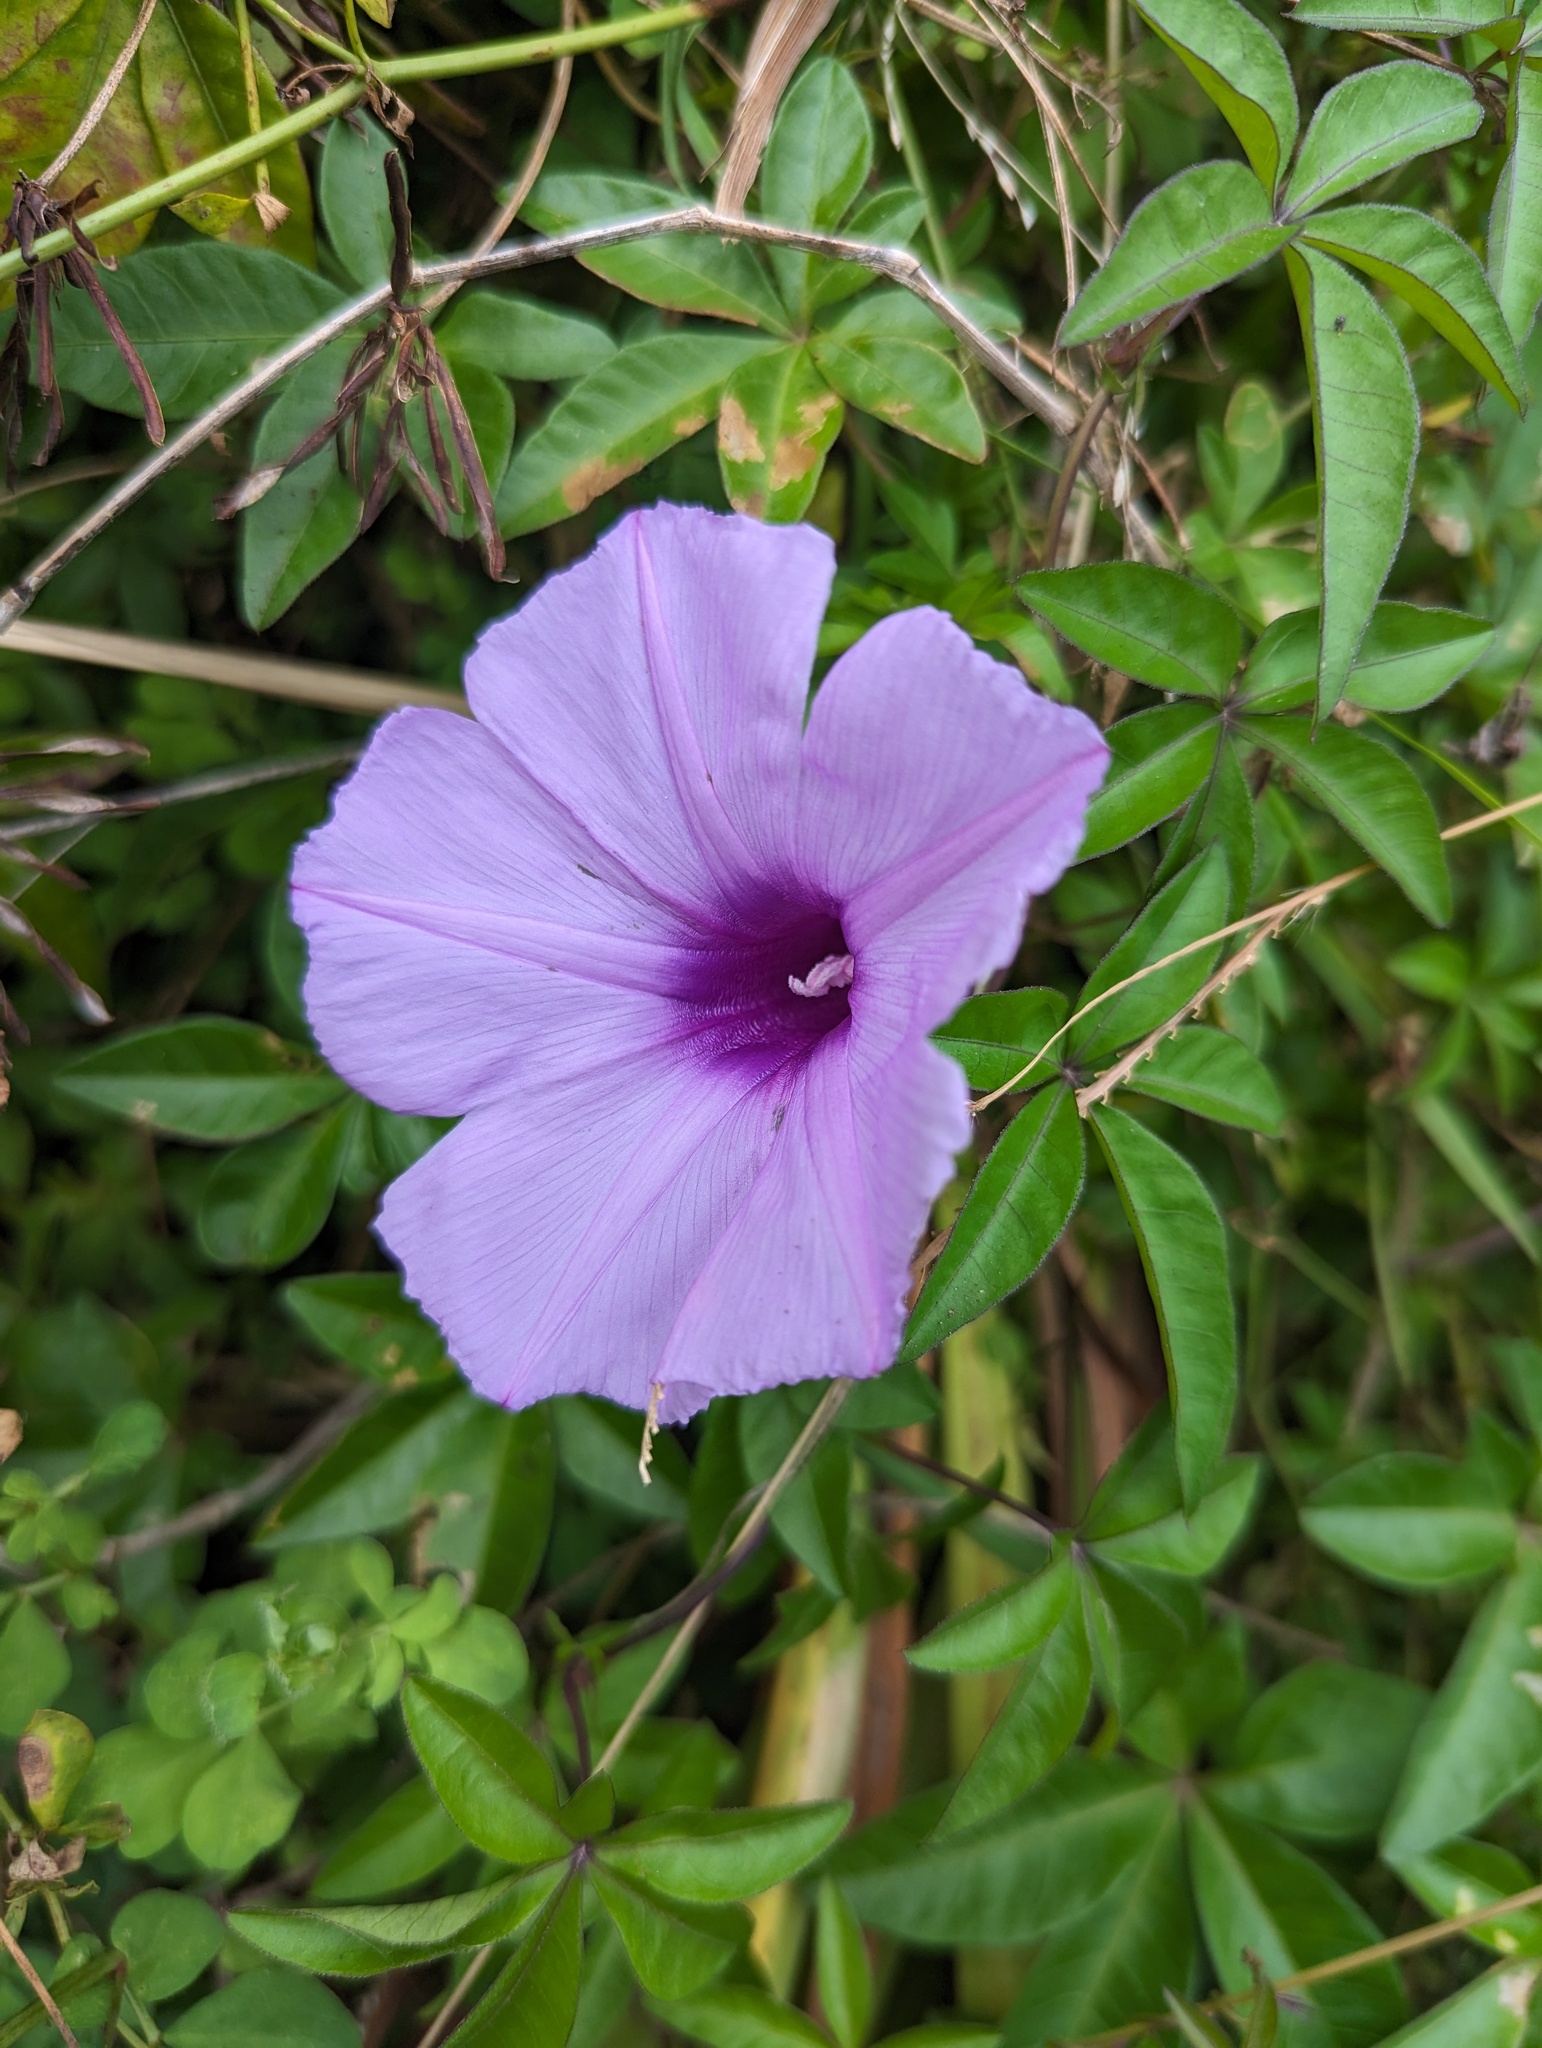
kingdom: Plantae
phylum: Tracheophyta
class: Magnoliopsida
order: Solanales
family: Convolvulaceae
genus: Ipomoea
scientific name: Ipomoea cairica
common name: Mile a minute vine
